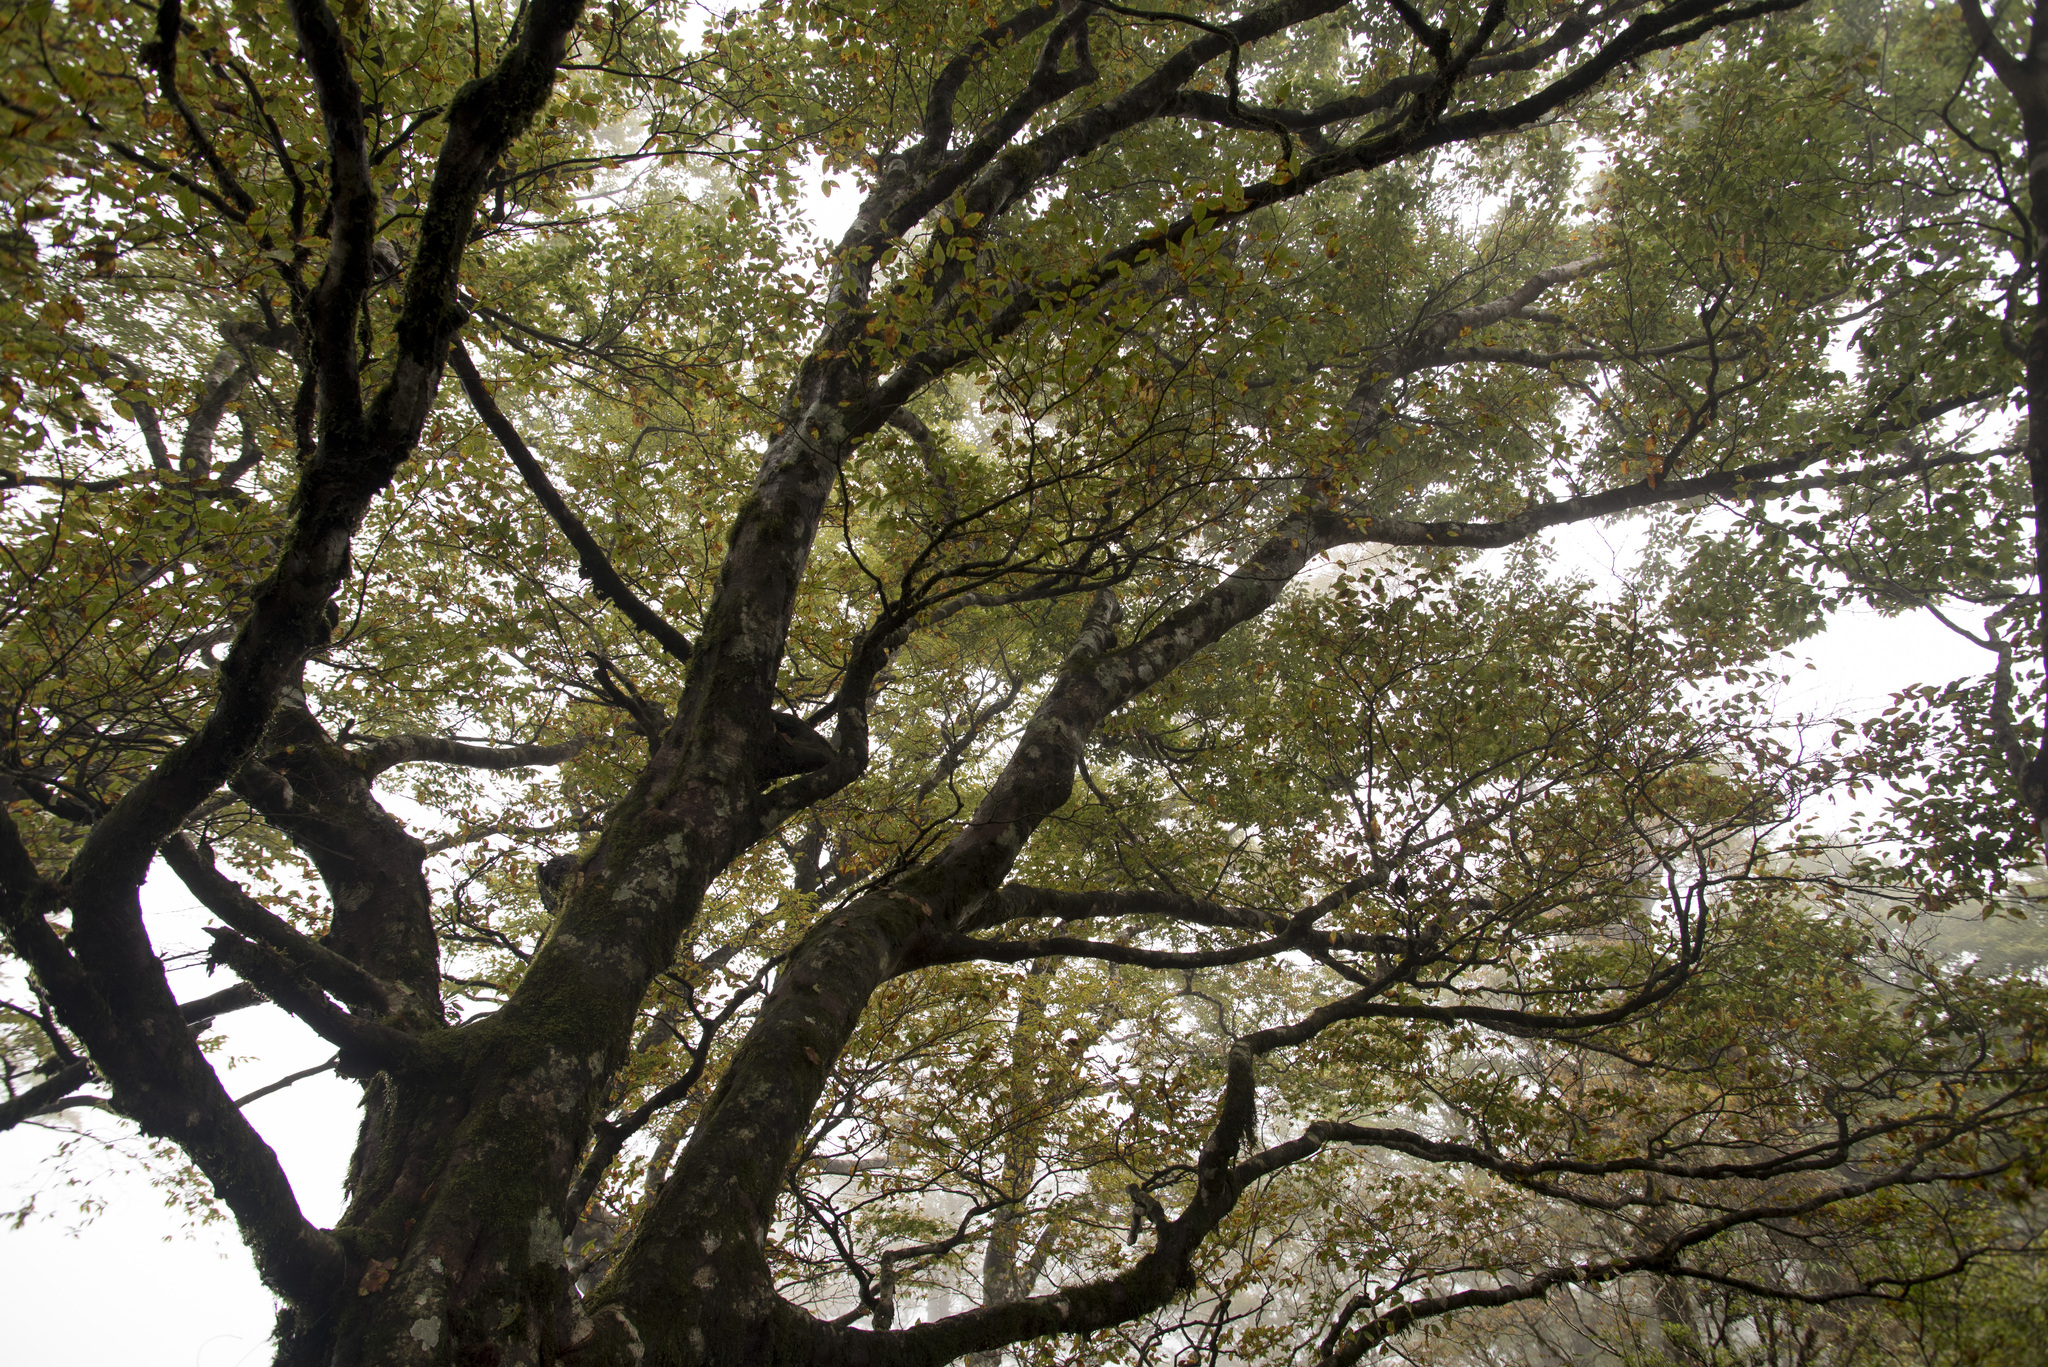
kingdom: Plantae
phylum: Tracheophyta
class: Magnoliopsida
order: Fagales
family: Fagaceae
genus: Fagus
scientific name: Fagus hayatae
